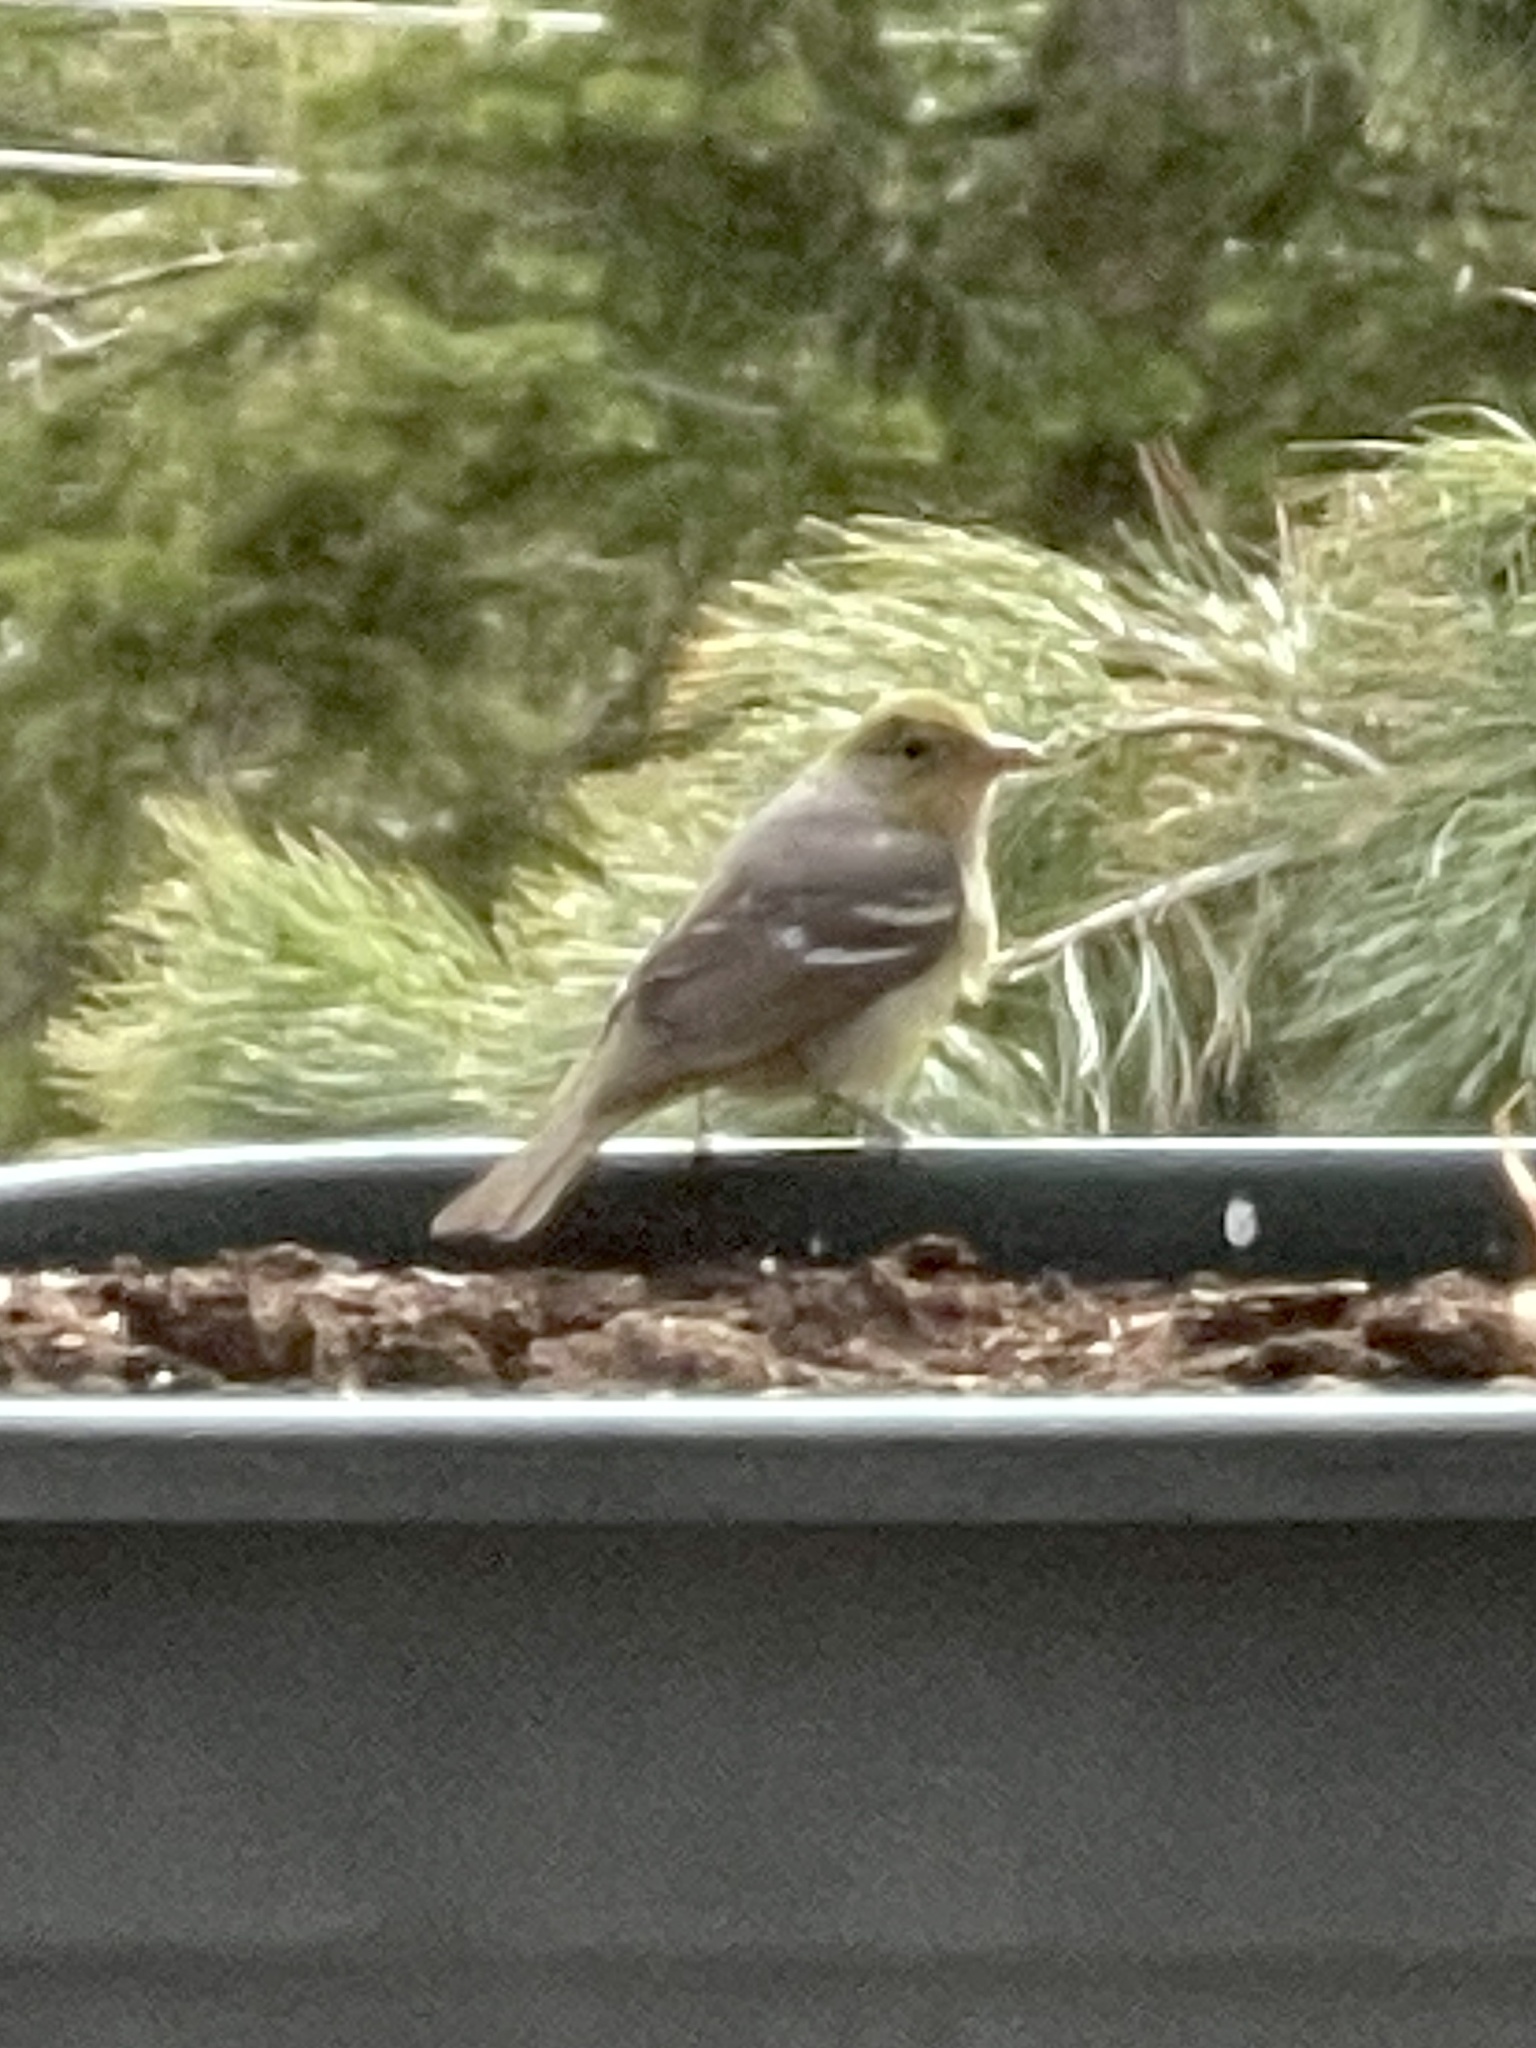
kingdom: Animalia
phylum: Chordata
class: Aves
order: Passeriformes
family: Cardinalidae
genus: Piranga
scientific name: Piranga ludoviciana
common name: Western tanager
